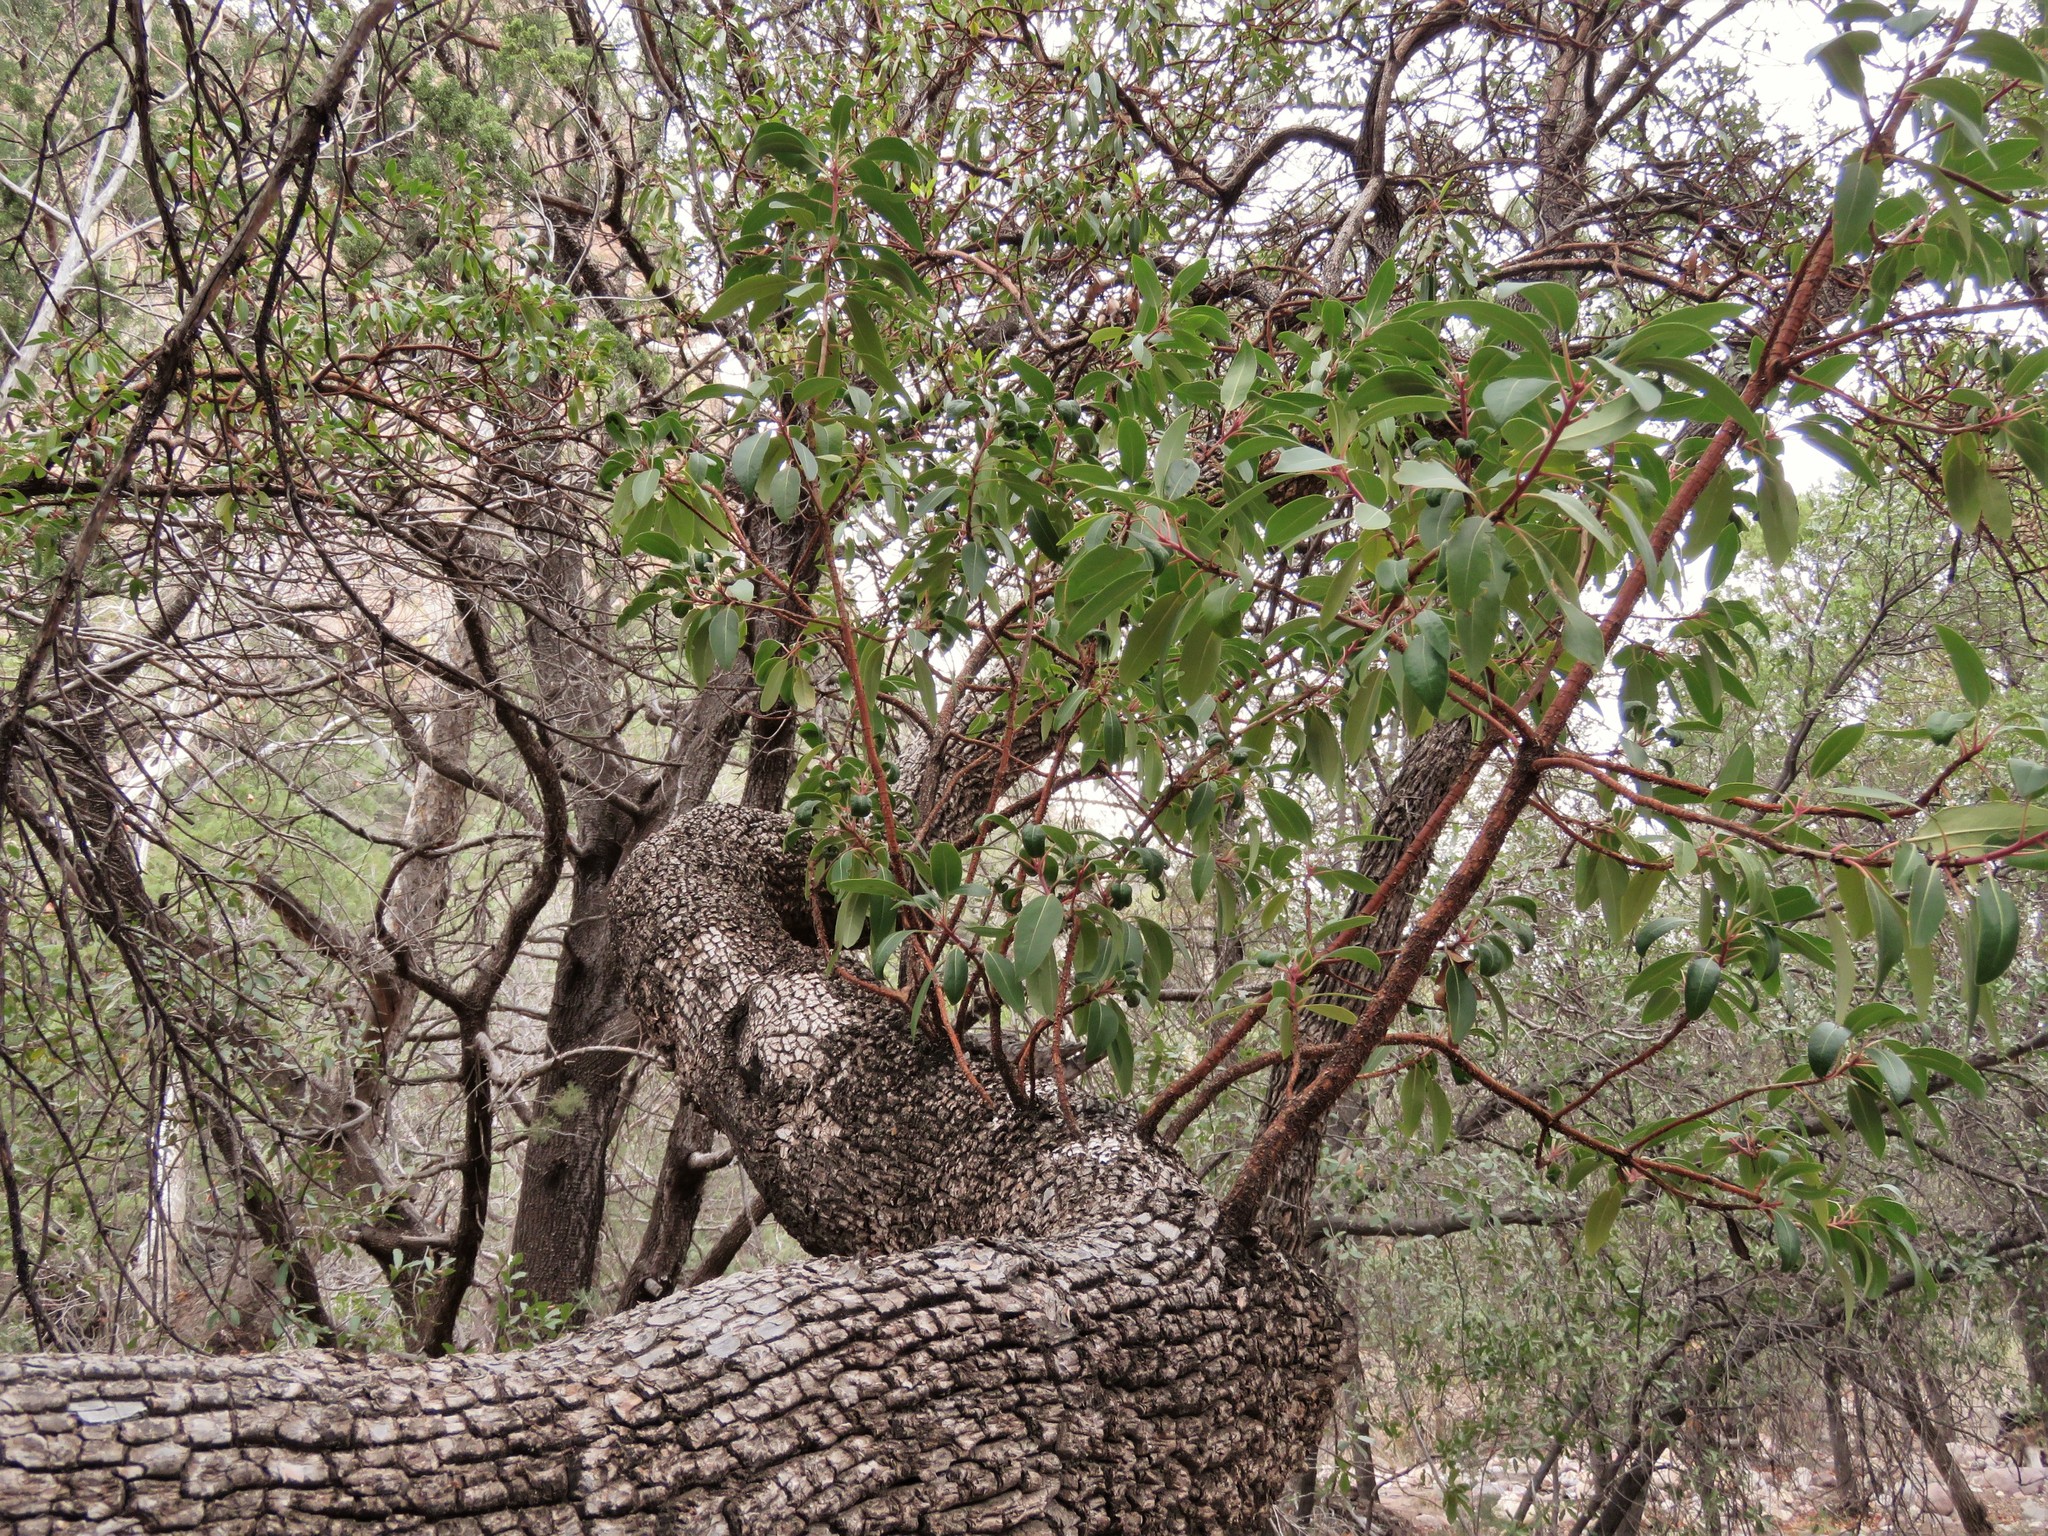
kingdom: Plantae
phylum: Tracheophyta
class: Magnoliopsida
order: Ericales
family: Ericaceae
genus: Arbutus
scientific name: Arbutus arizonica
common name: Arizona madrone
